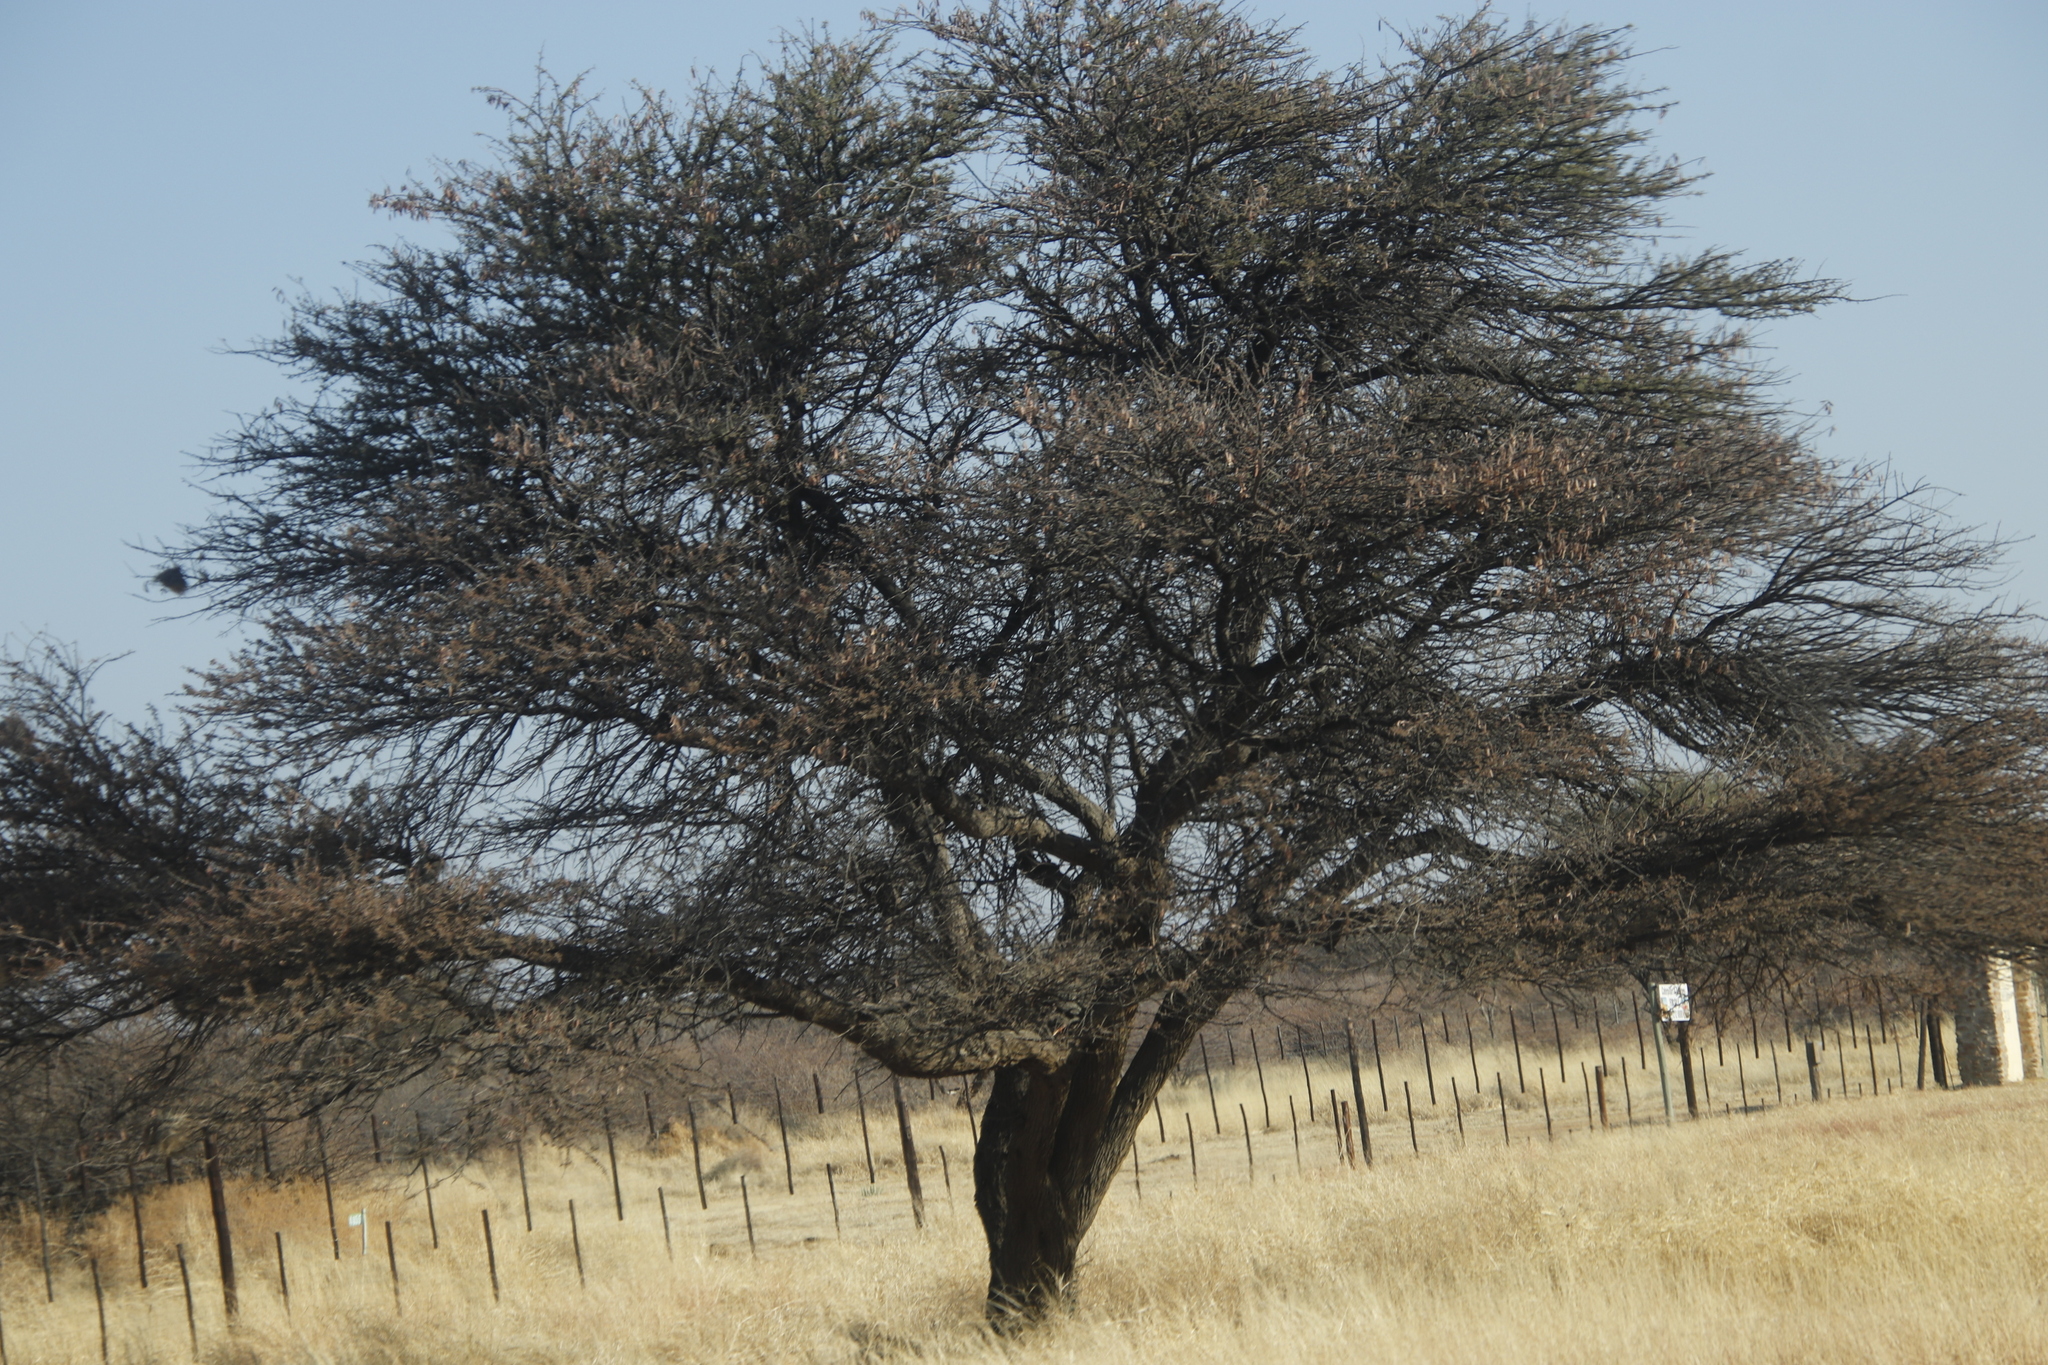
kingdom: Plantae
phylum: Tracheophyta
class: Magnoliopsida
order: Fabales
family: Fabaceae
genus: Vachellia
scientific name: Vachellia luederitzii
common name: Bastard umbrella thorn
